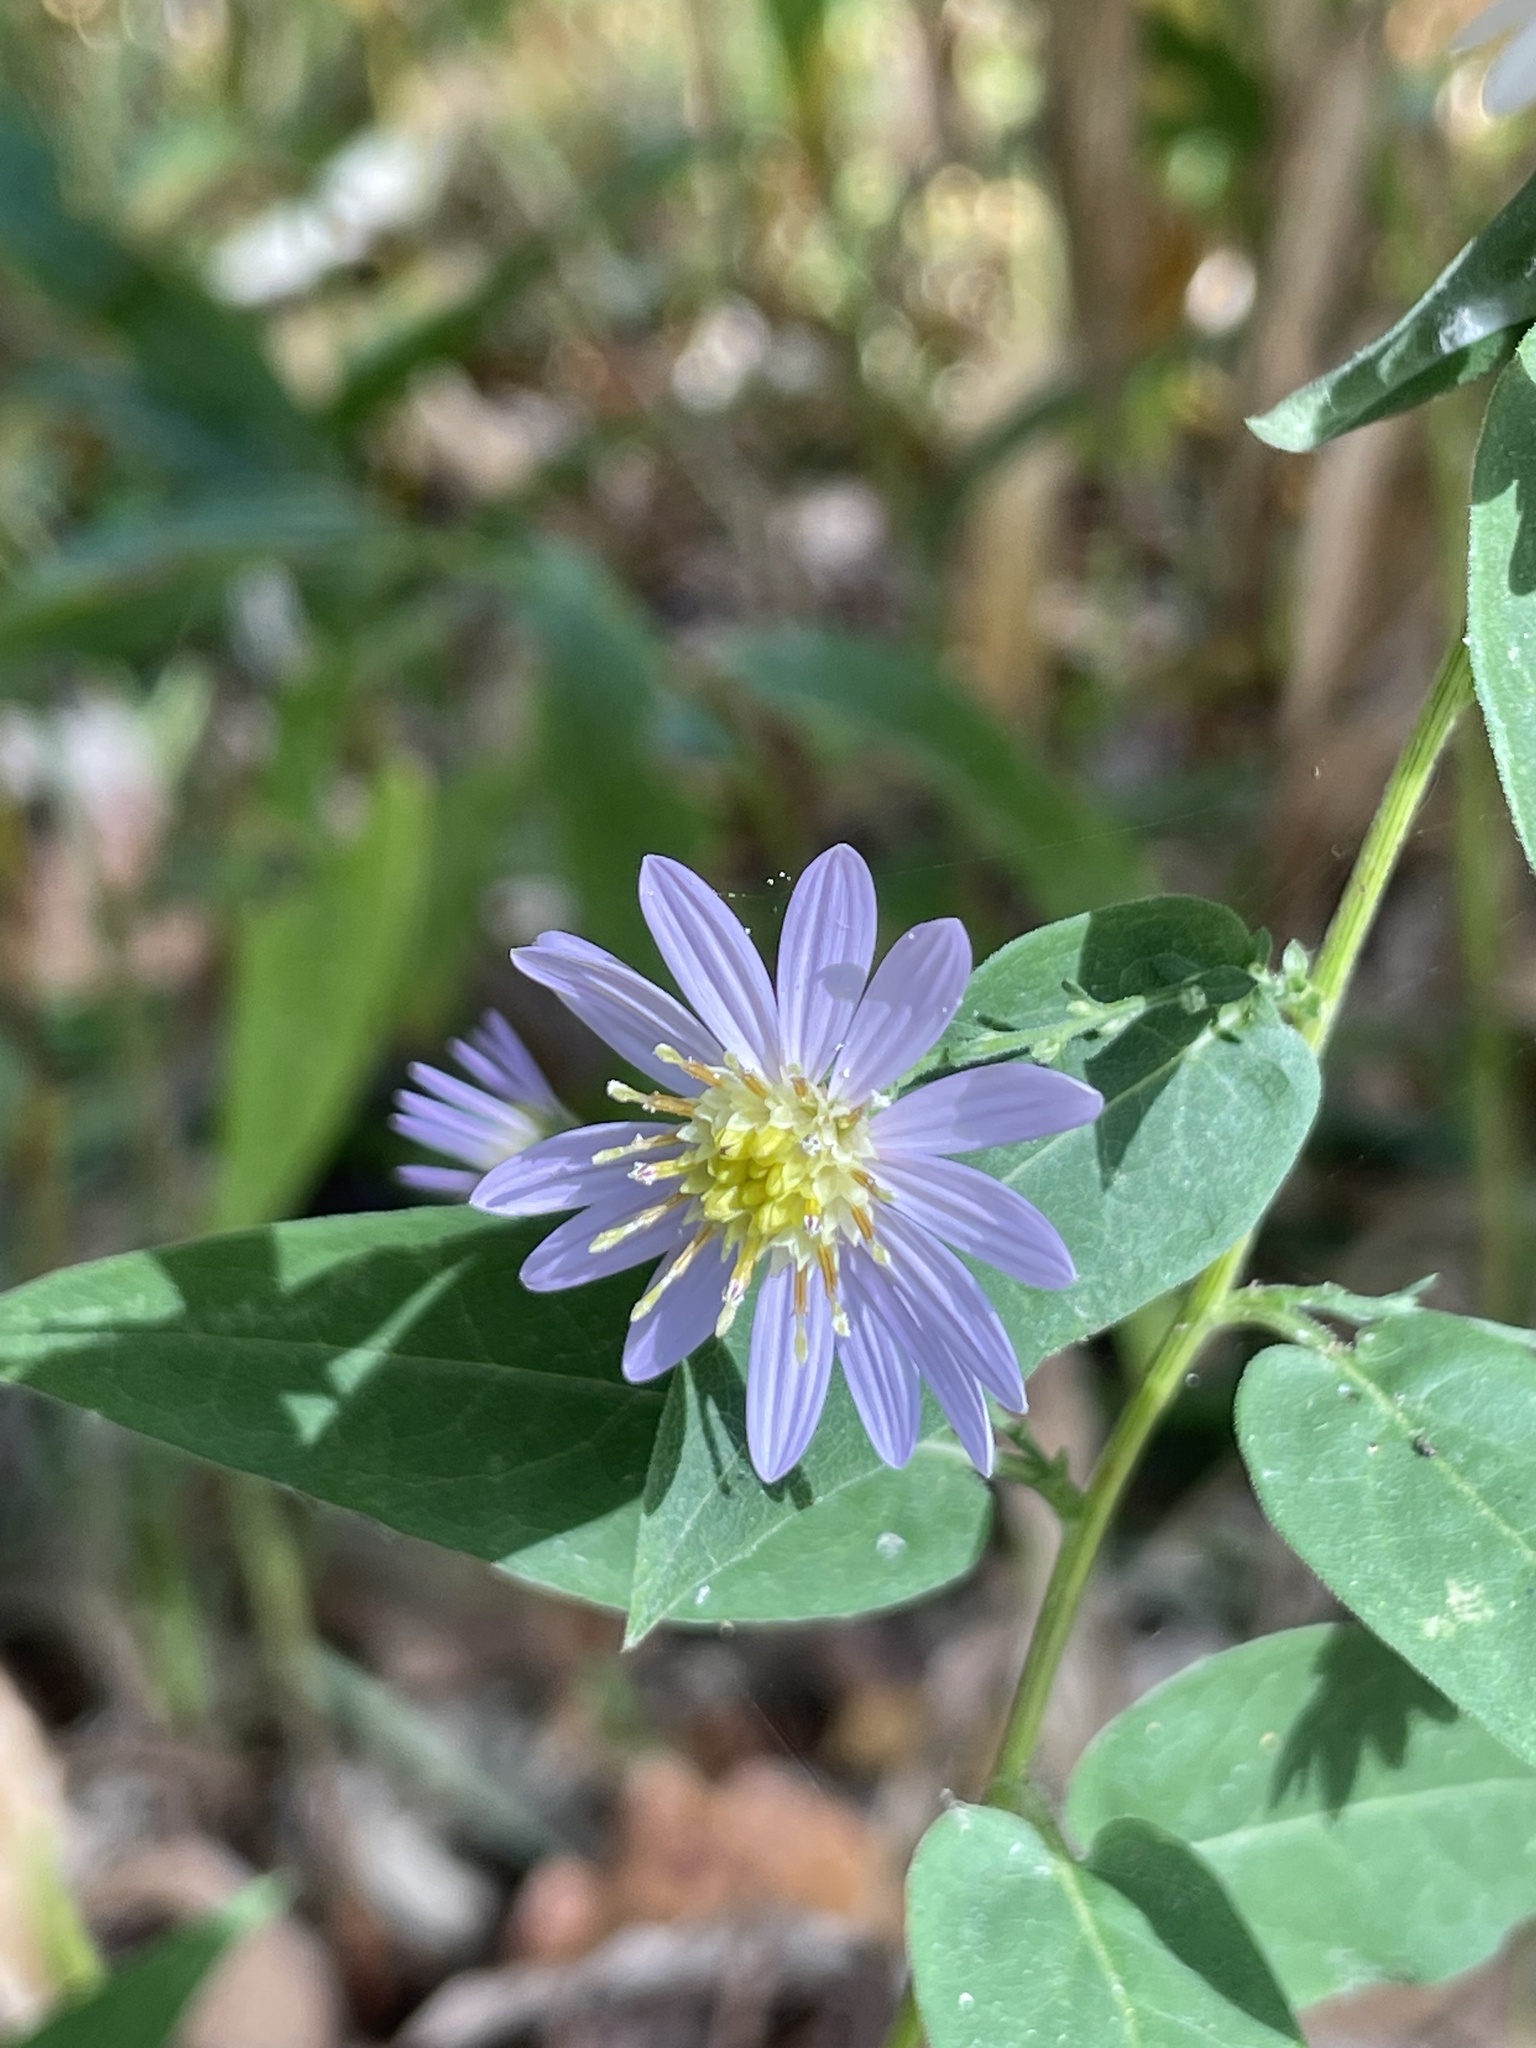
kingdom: Plantae
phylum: Tracheophyta
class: Magnoliopsida
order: Asterales
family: Asteraceae
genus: Symphyotrichum
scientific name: Symphyotrichum shortii
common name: Short's aster
